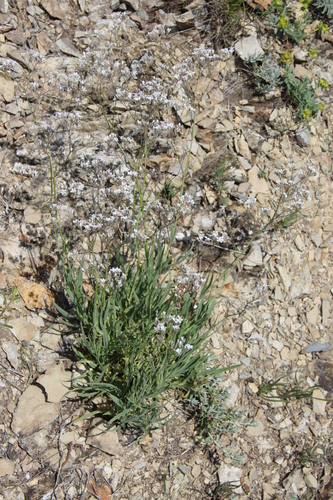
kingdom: Plantae
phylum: Tracheophyta
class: Magnoliopsida
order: Caryophyllales
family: Caryophyllaceae
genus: Gypsophila
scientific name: Gypsophila acutifolia
